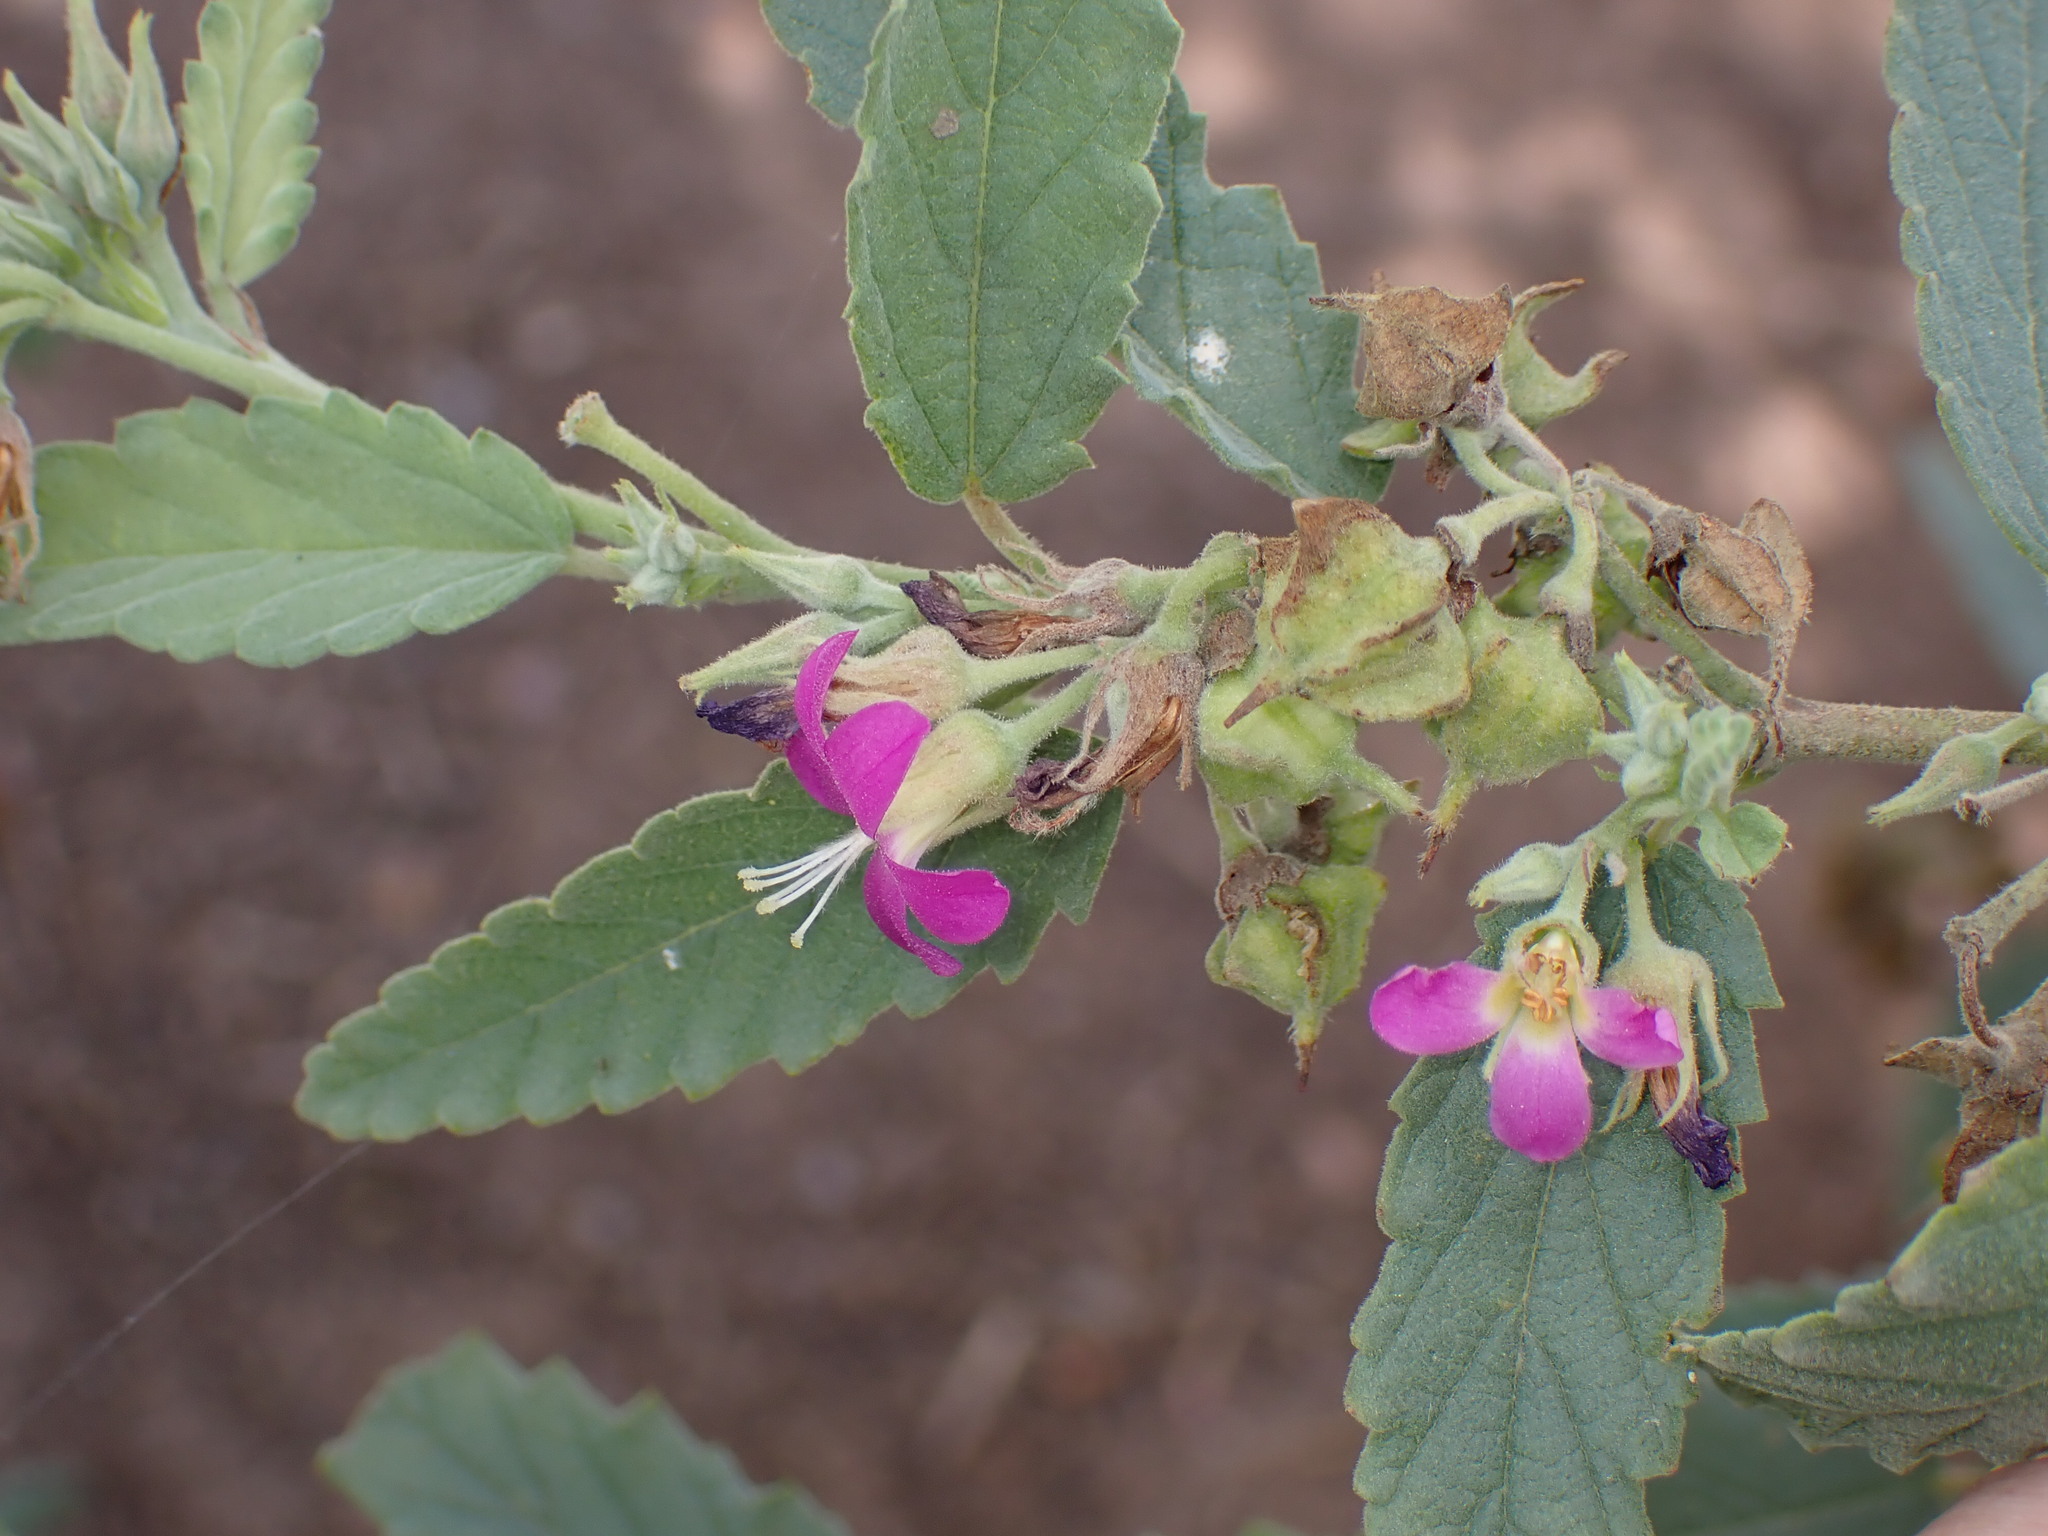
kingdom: Plantae
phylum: Tracheophyta
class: Magnoliopsida
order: Malvales
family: Malvaceae
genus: Melochia
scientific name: Melochia tomentosa
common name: Black torch
